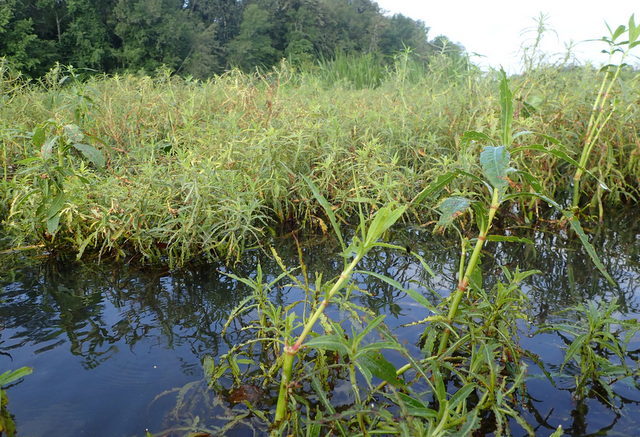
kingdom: Plantae
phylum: Tracheophyta
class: Magnoliopsida
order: Caryophyllales
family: Amaranthaceae
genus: Alternanthera
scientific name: Alternanthera philoxeroides
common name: Alligatorweed
